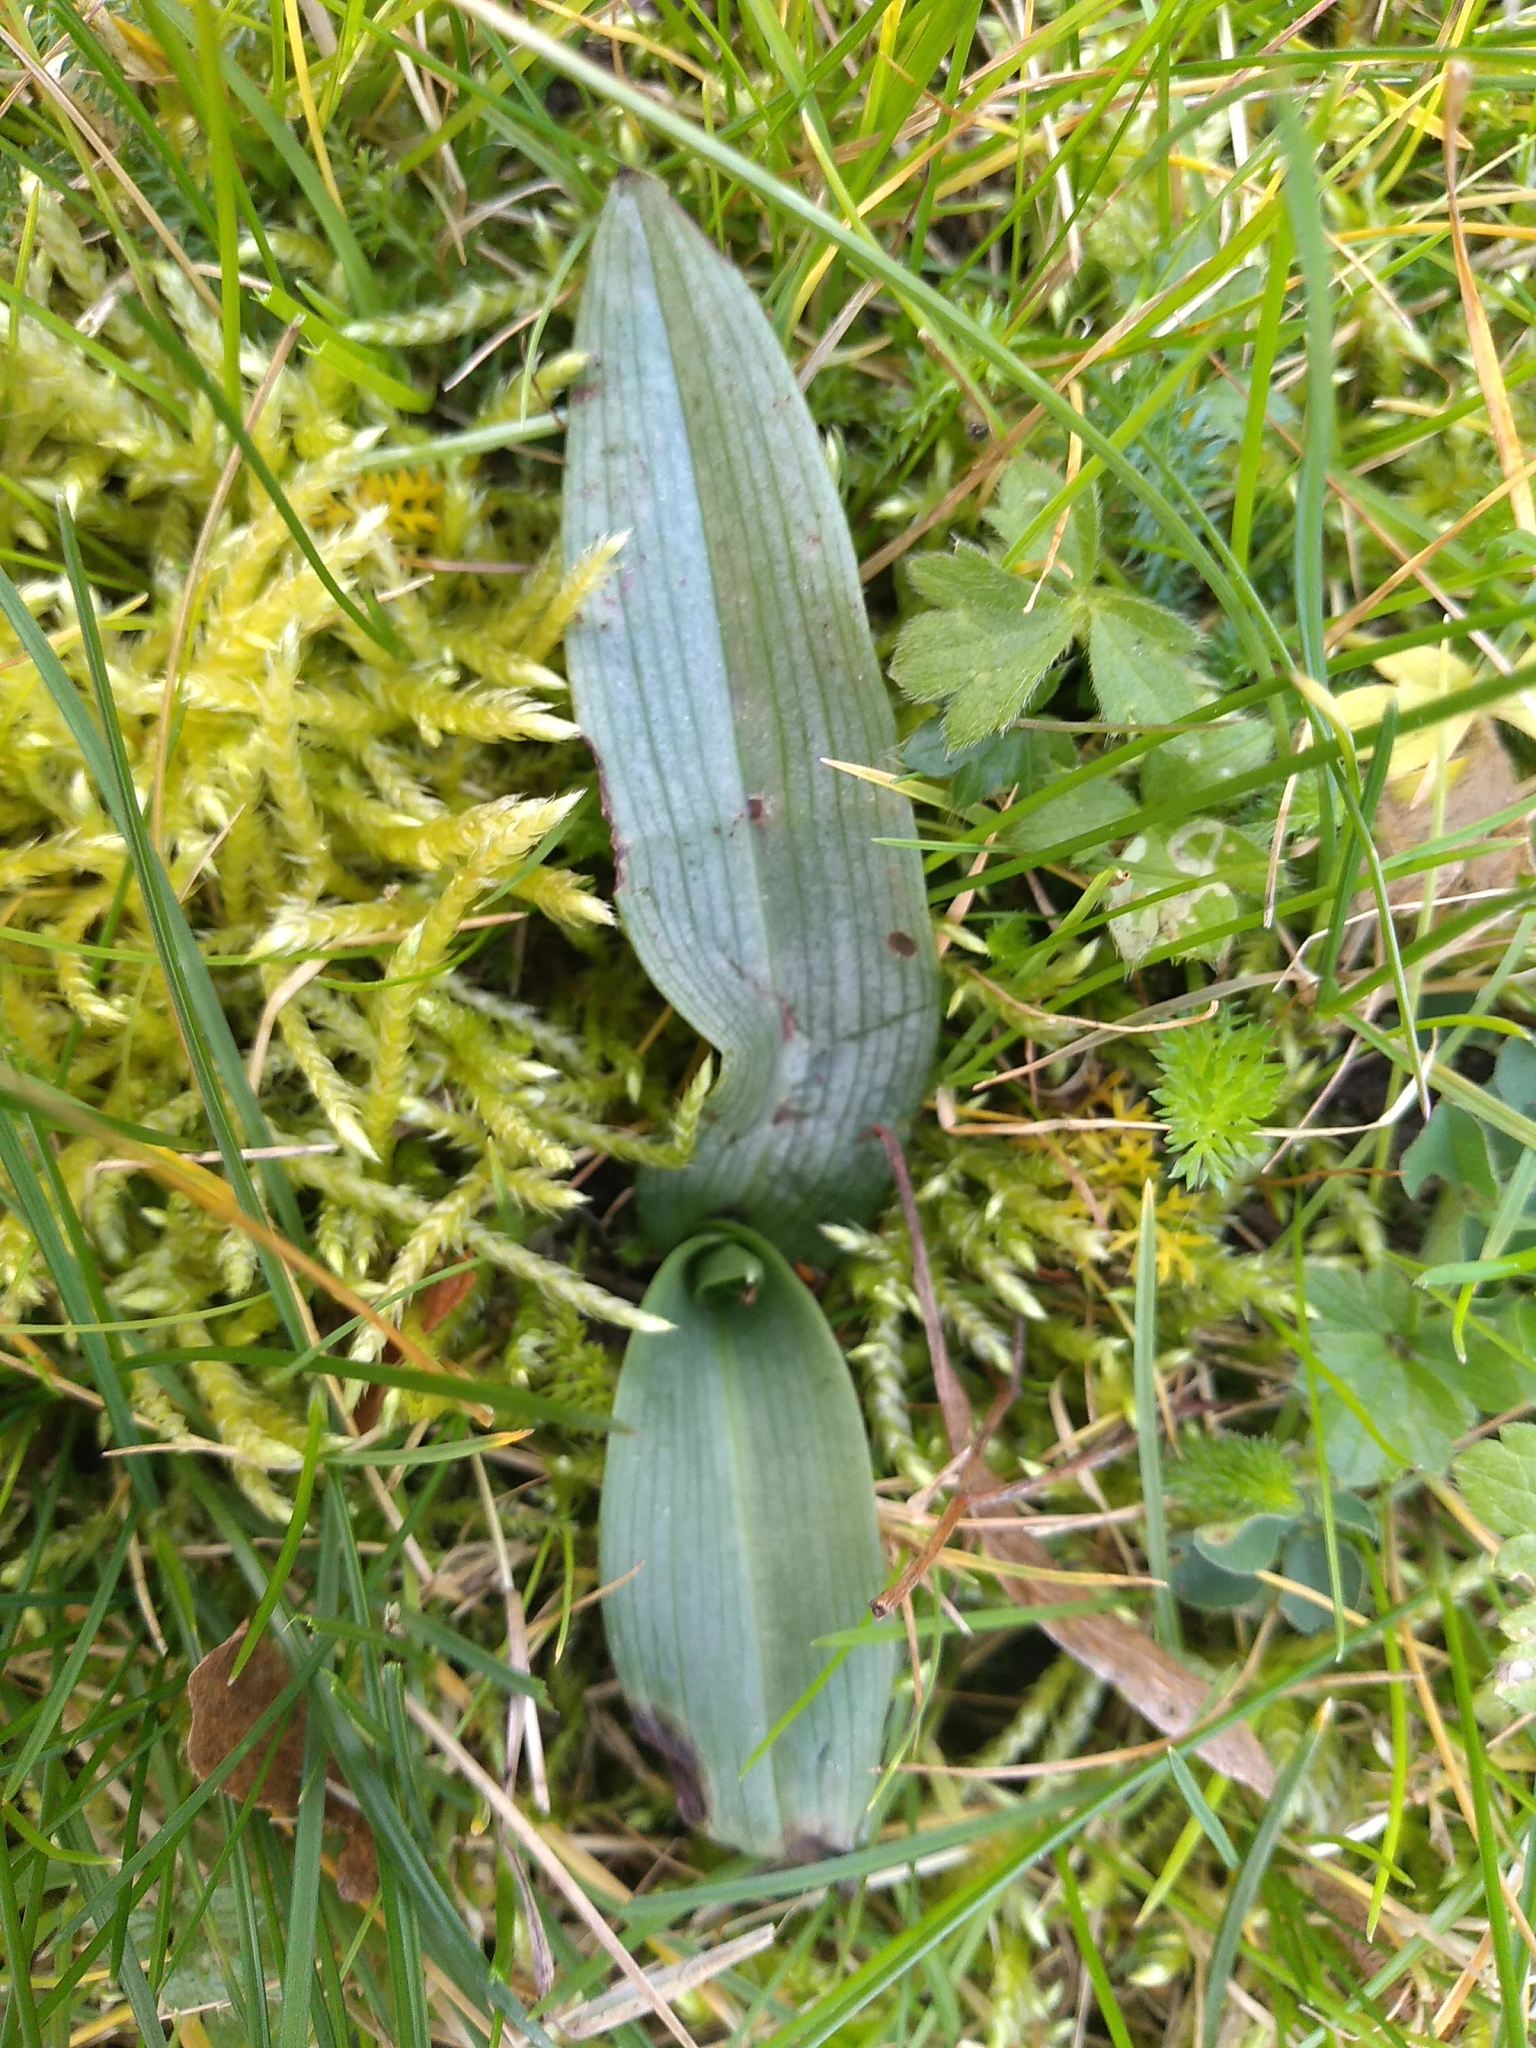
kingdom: Plantae
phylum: Tracheophyta
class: Liliopsida
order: Asparagales
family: Orchidaceae
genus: Ophrys
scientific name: Ophrys apifera
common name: Bee orchid
